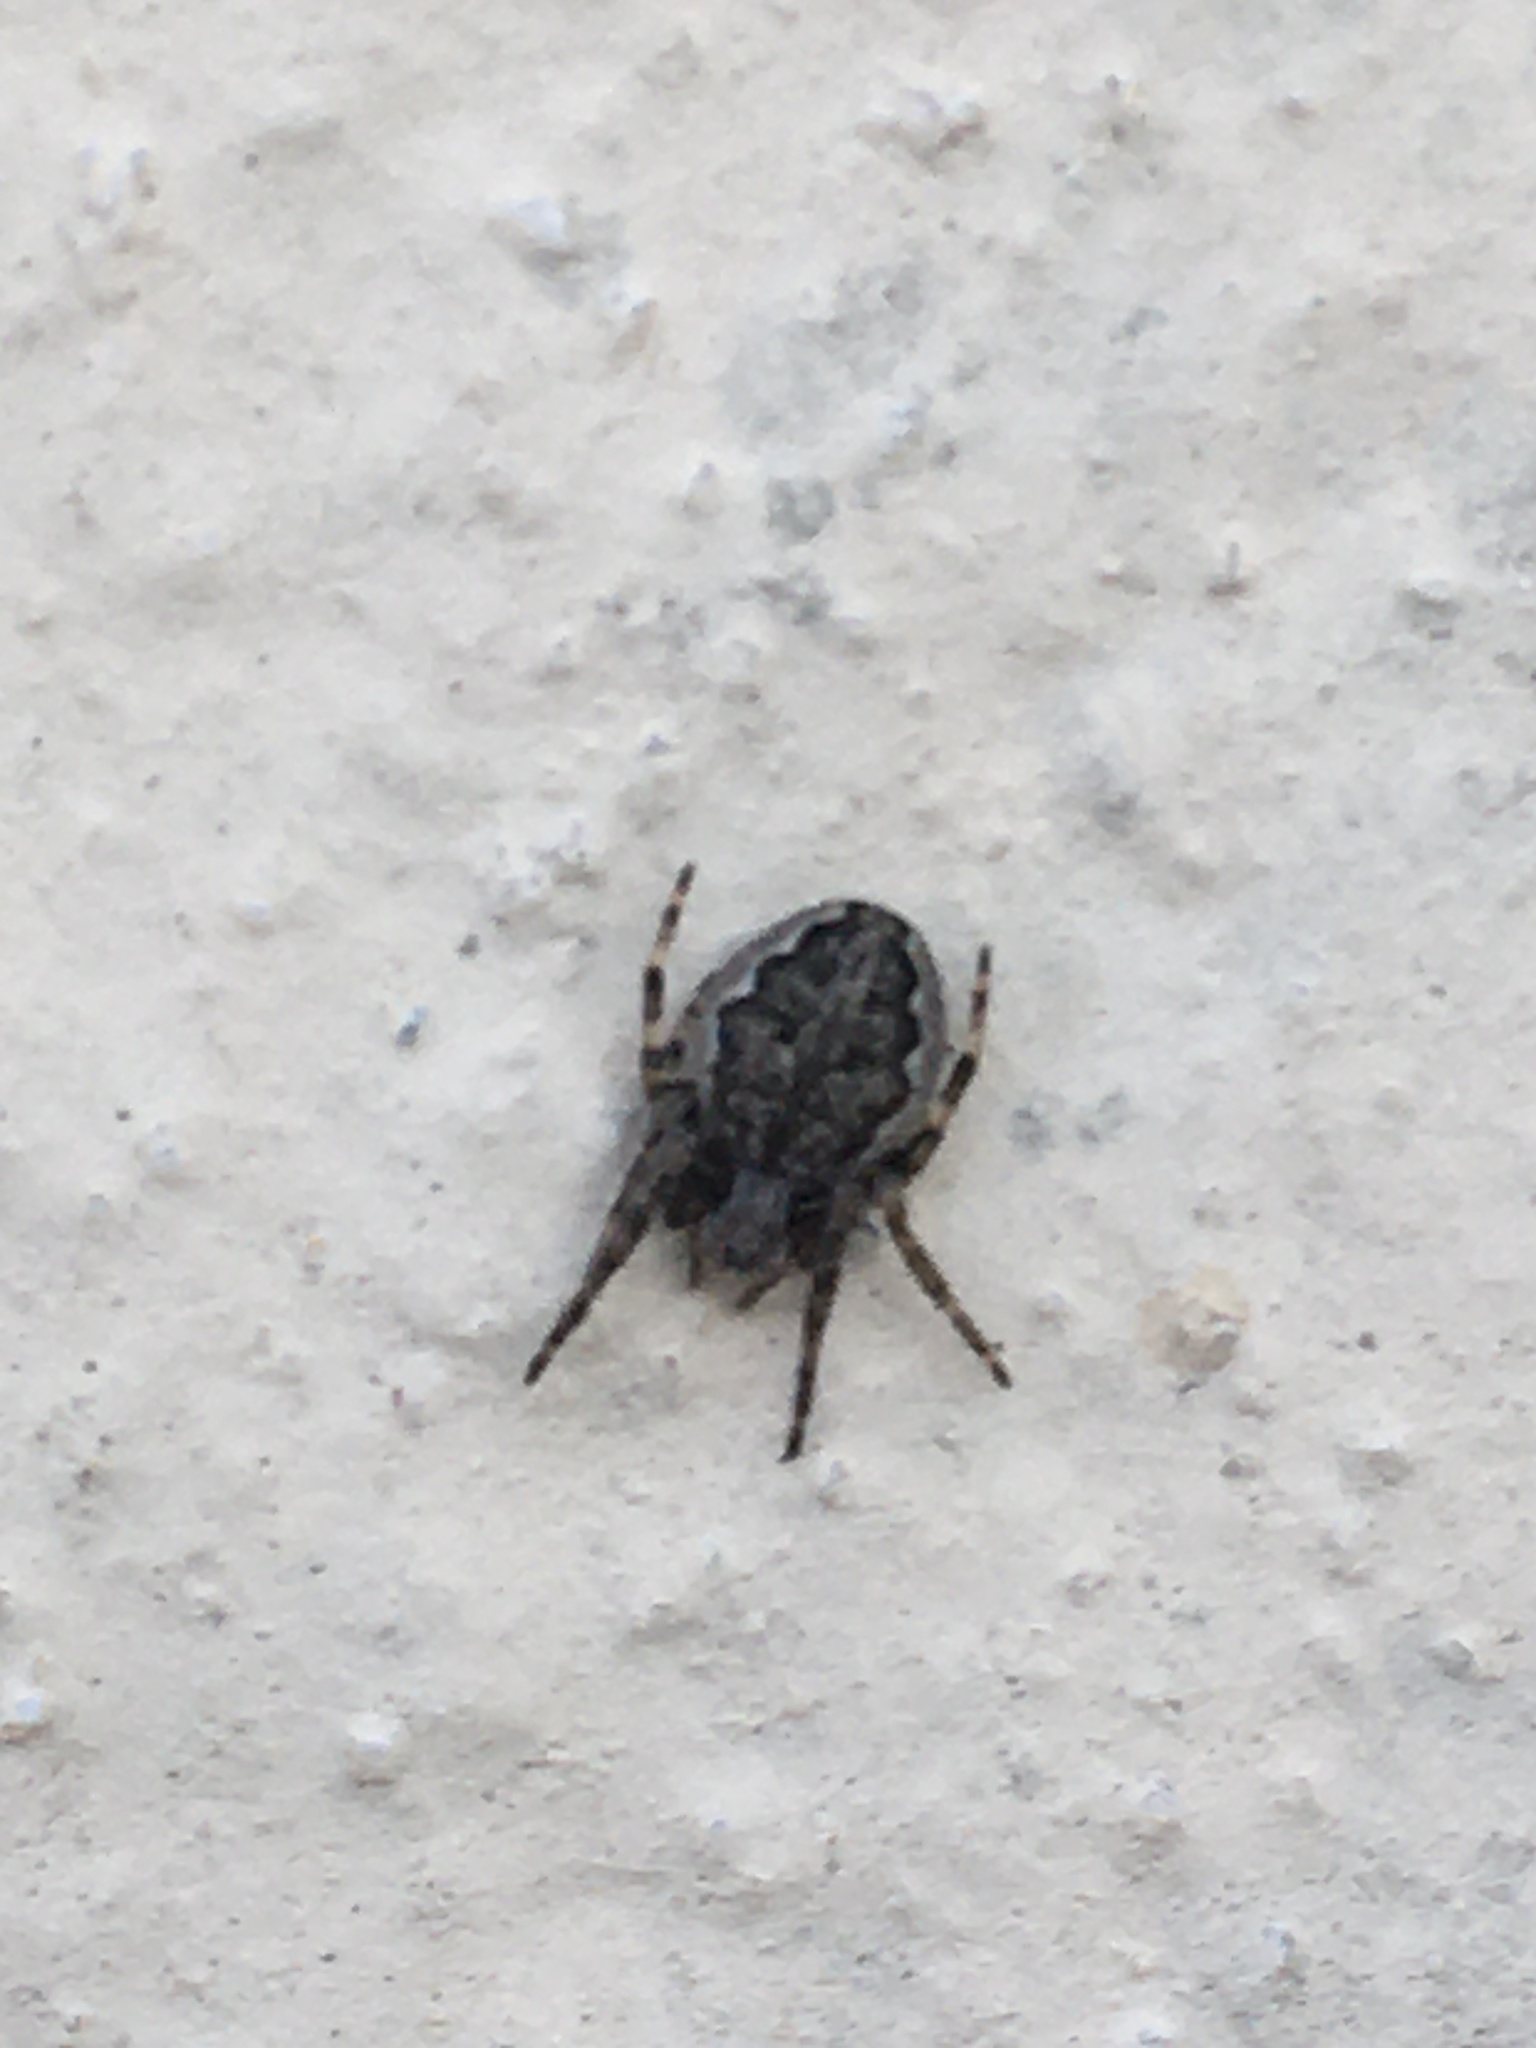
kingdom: Animalia
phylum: Arthropoda
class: Arachnida
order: Araneae
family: Araneidae
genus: Nuctenea
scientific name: Nuctenea umbratica
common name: Toad spider
